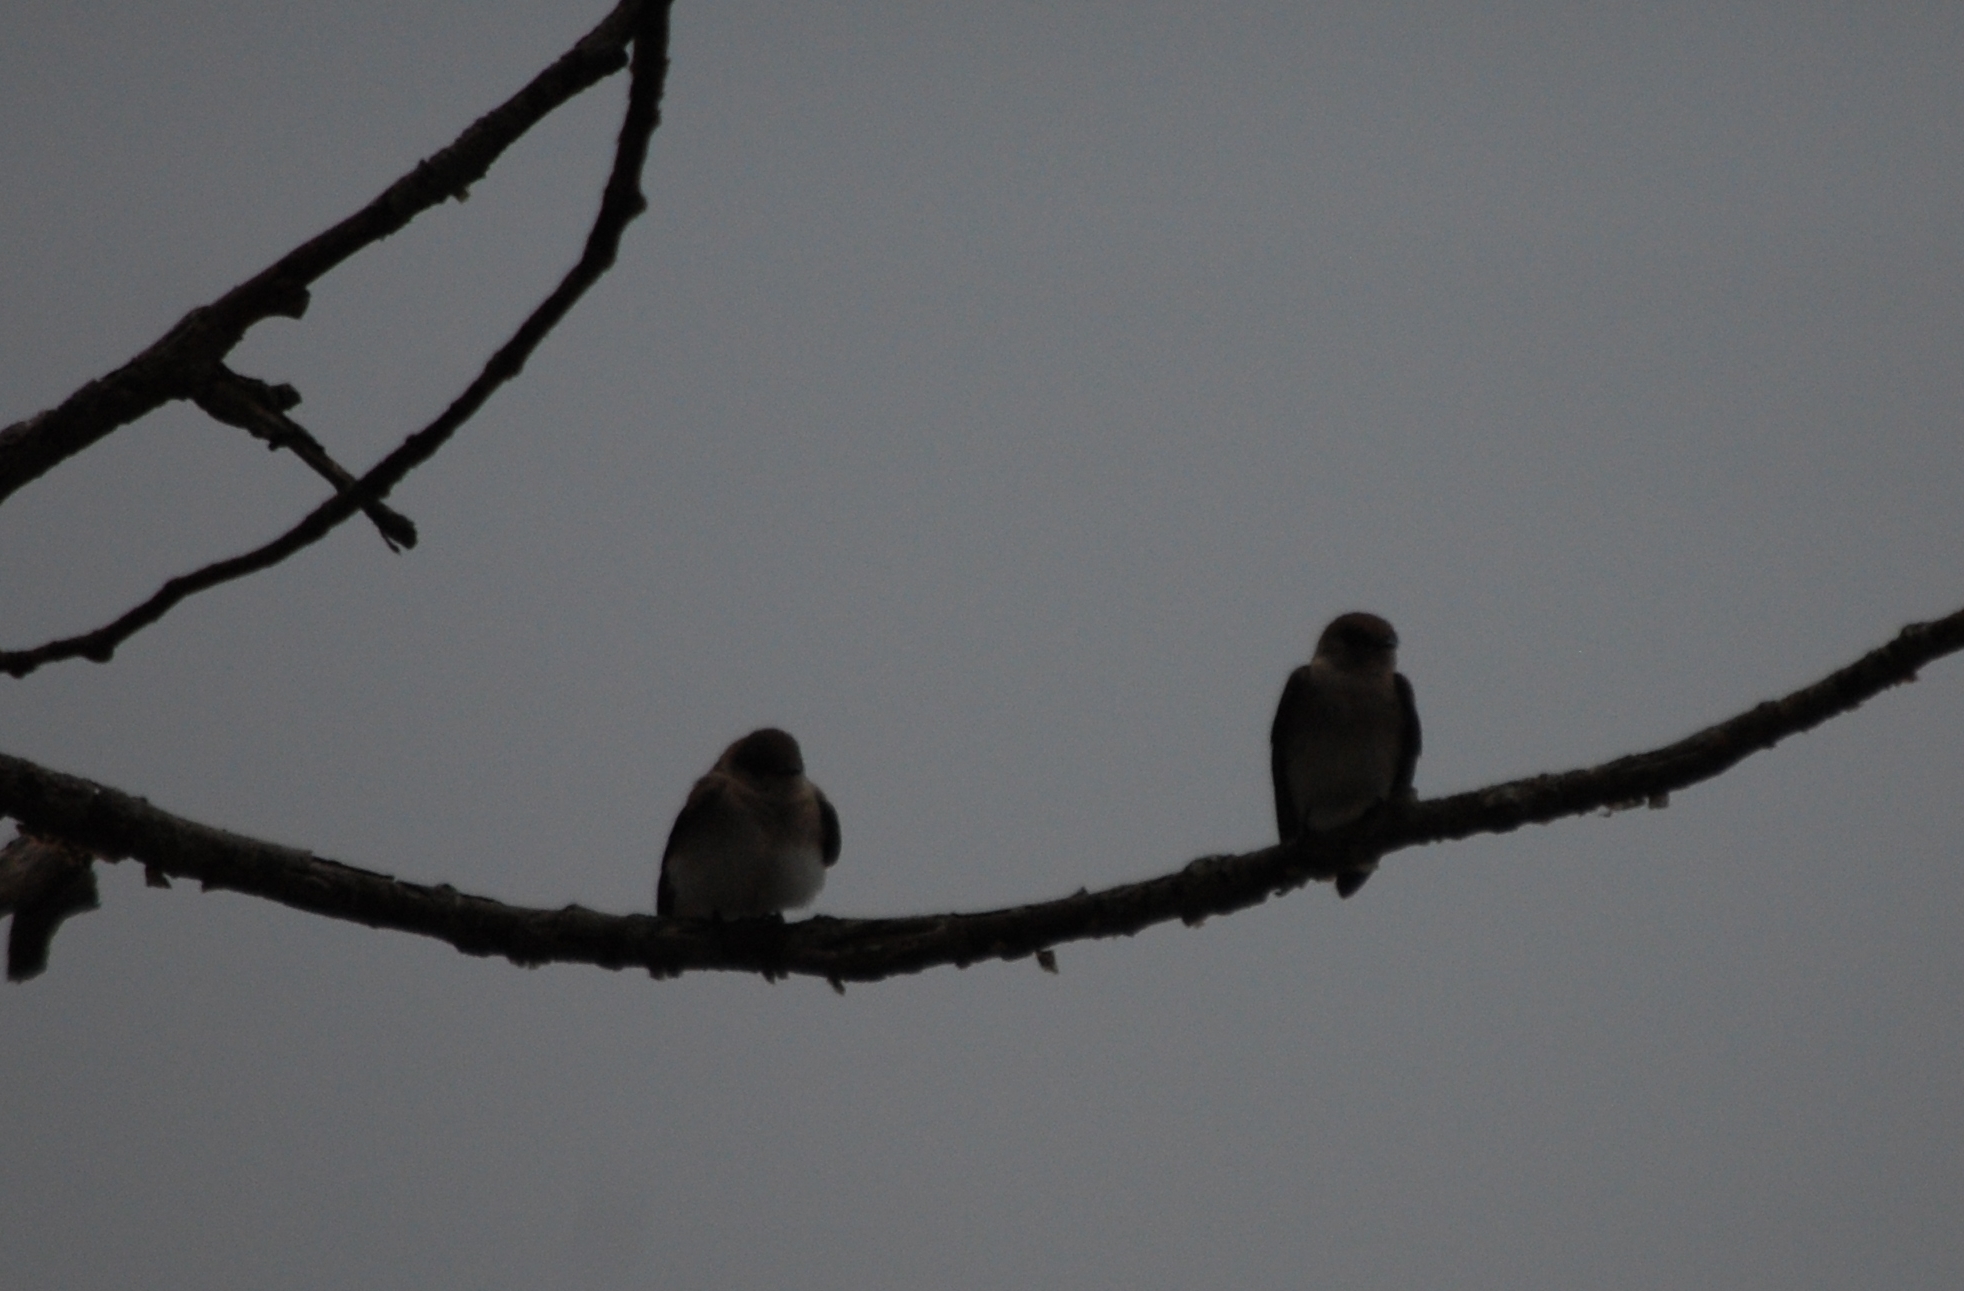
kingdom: Animalia
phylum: Chordata
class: Aves
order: Passeriformes
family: Hirundinidae
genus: Stelgidopteryx
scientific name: Stelgidopteryx serripennis
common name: Northern rough-winged swallow
